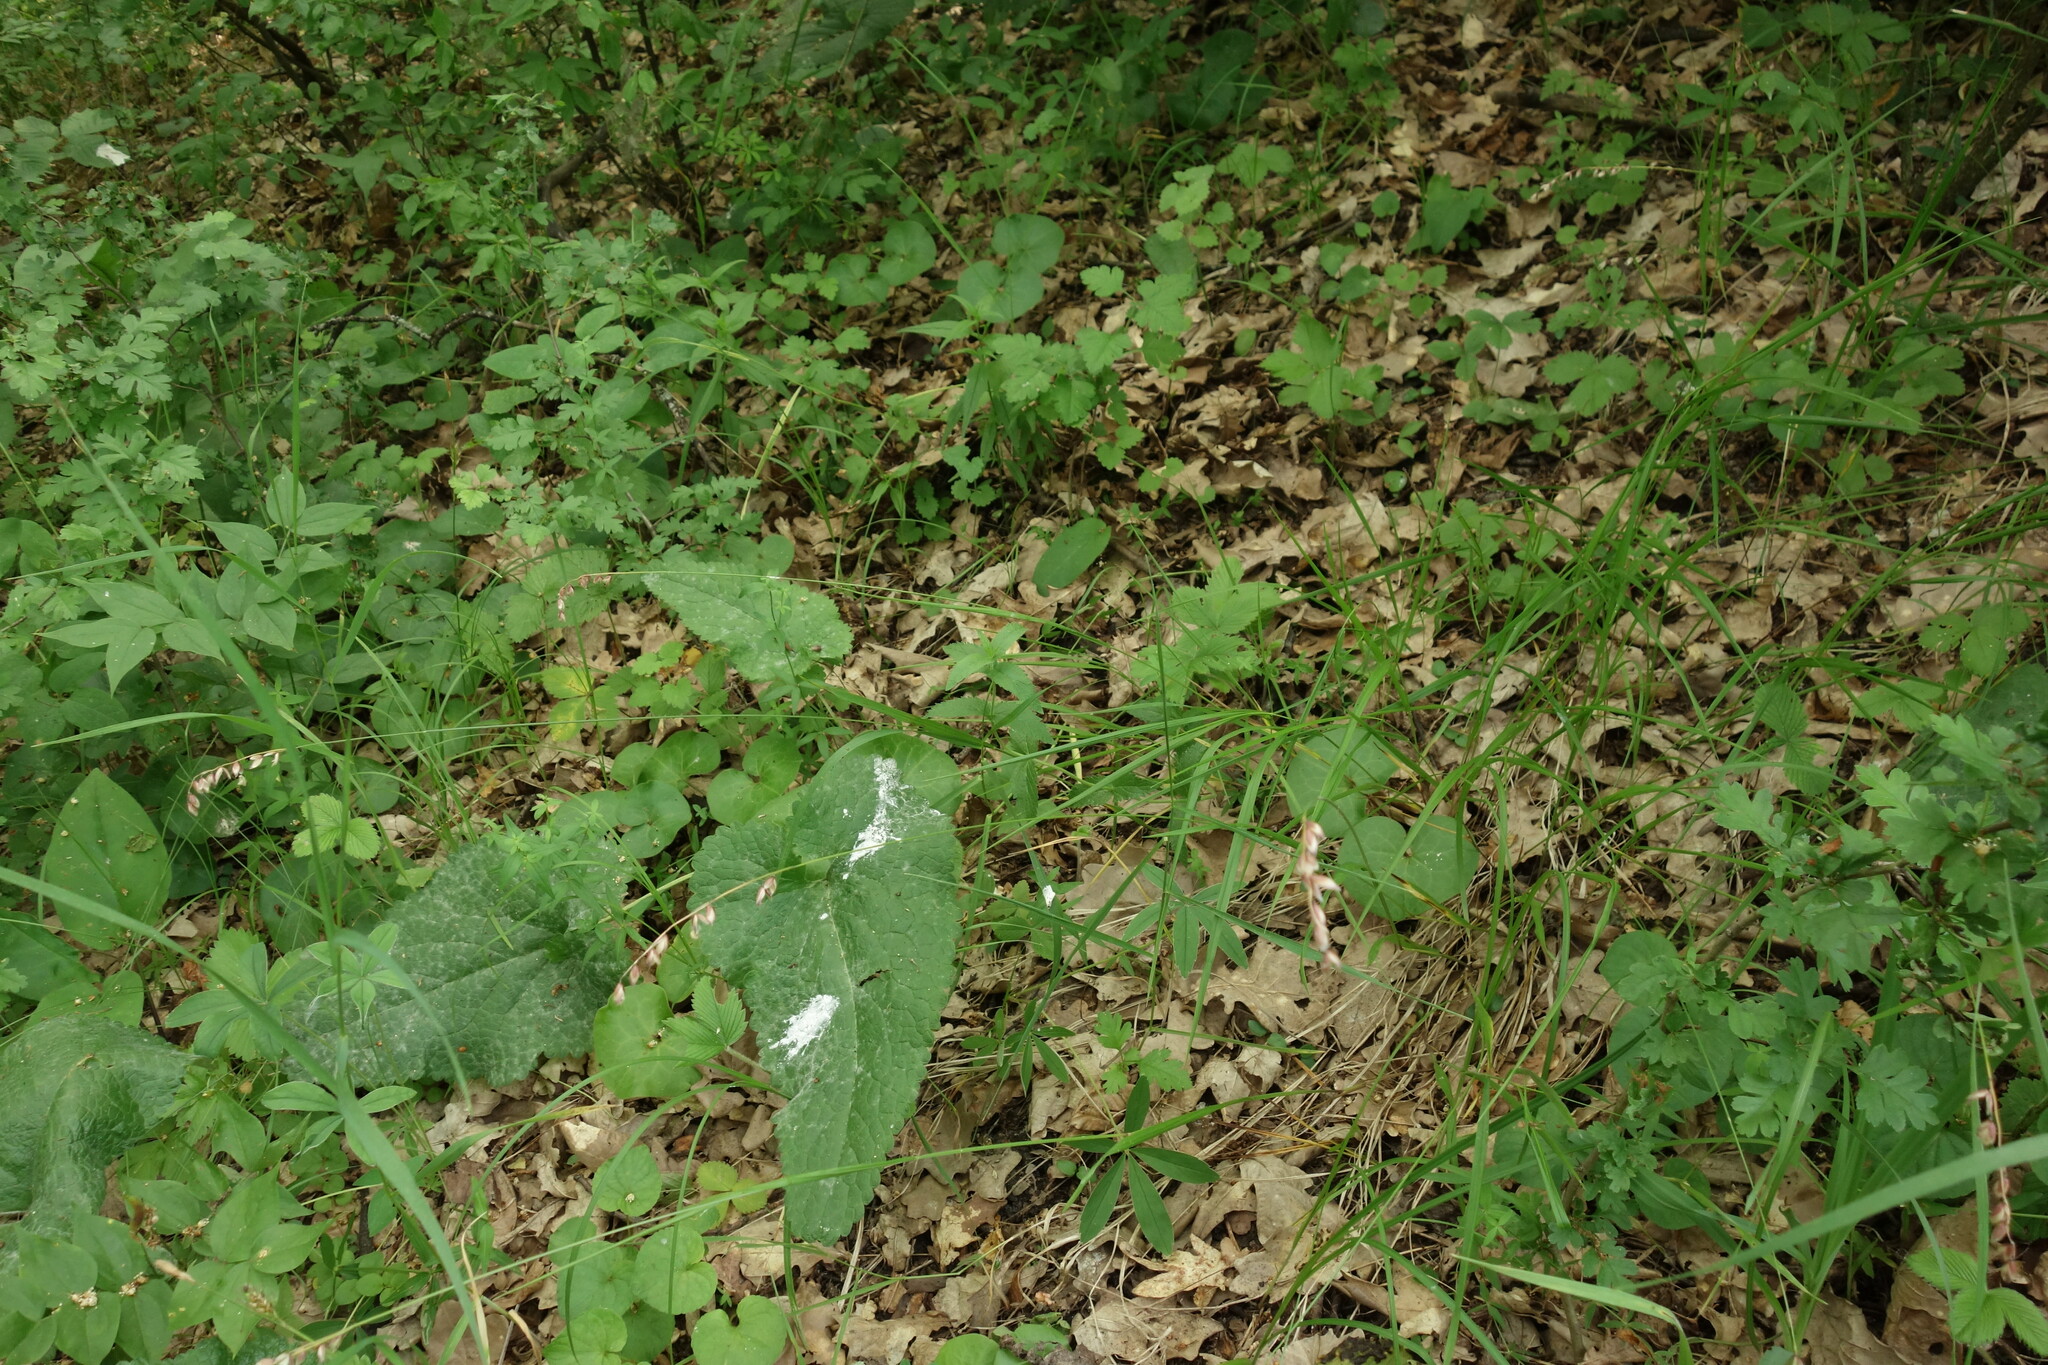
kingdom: Plantae
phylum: Tracheophyta
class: Liliopsida
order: Poales
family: Poaceae
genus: Melica
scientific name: Melica nutans
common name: Mountain melick
